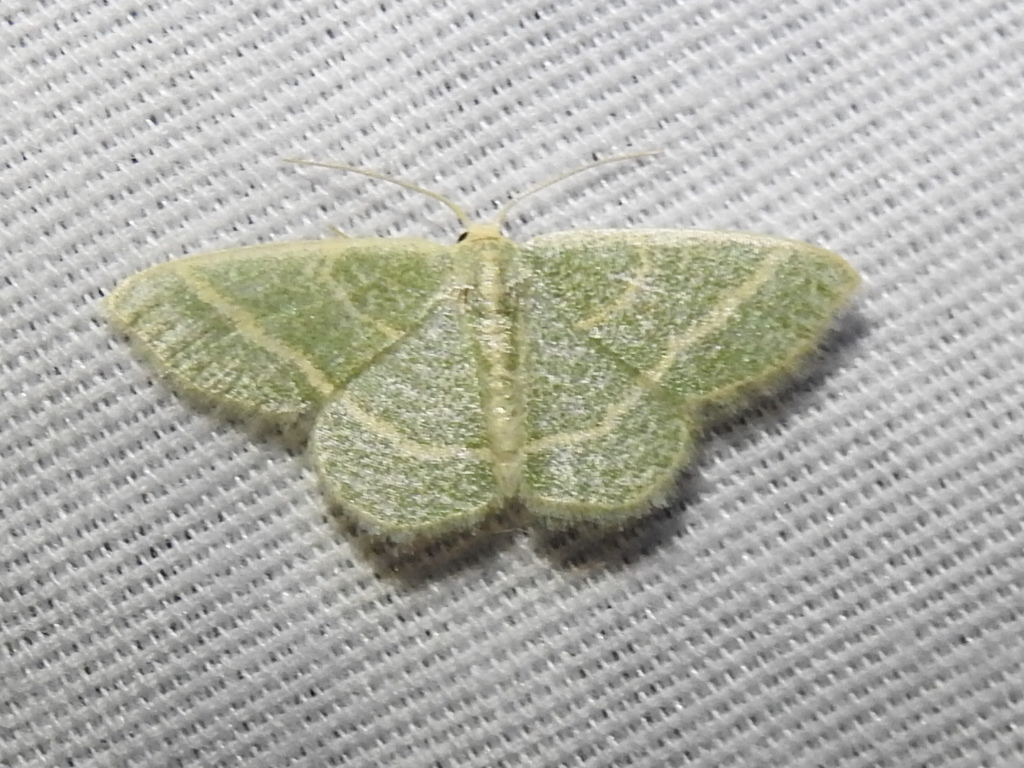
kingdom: Animalia
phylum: Arthropoda
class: Insecta
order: Lepidoptera
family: Geometridae
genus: Chlorochlamys
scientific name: Chlorochlamys chloroleucaria
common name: Blackberry looper
